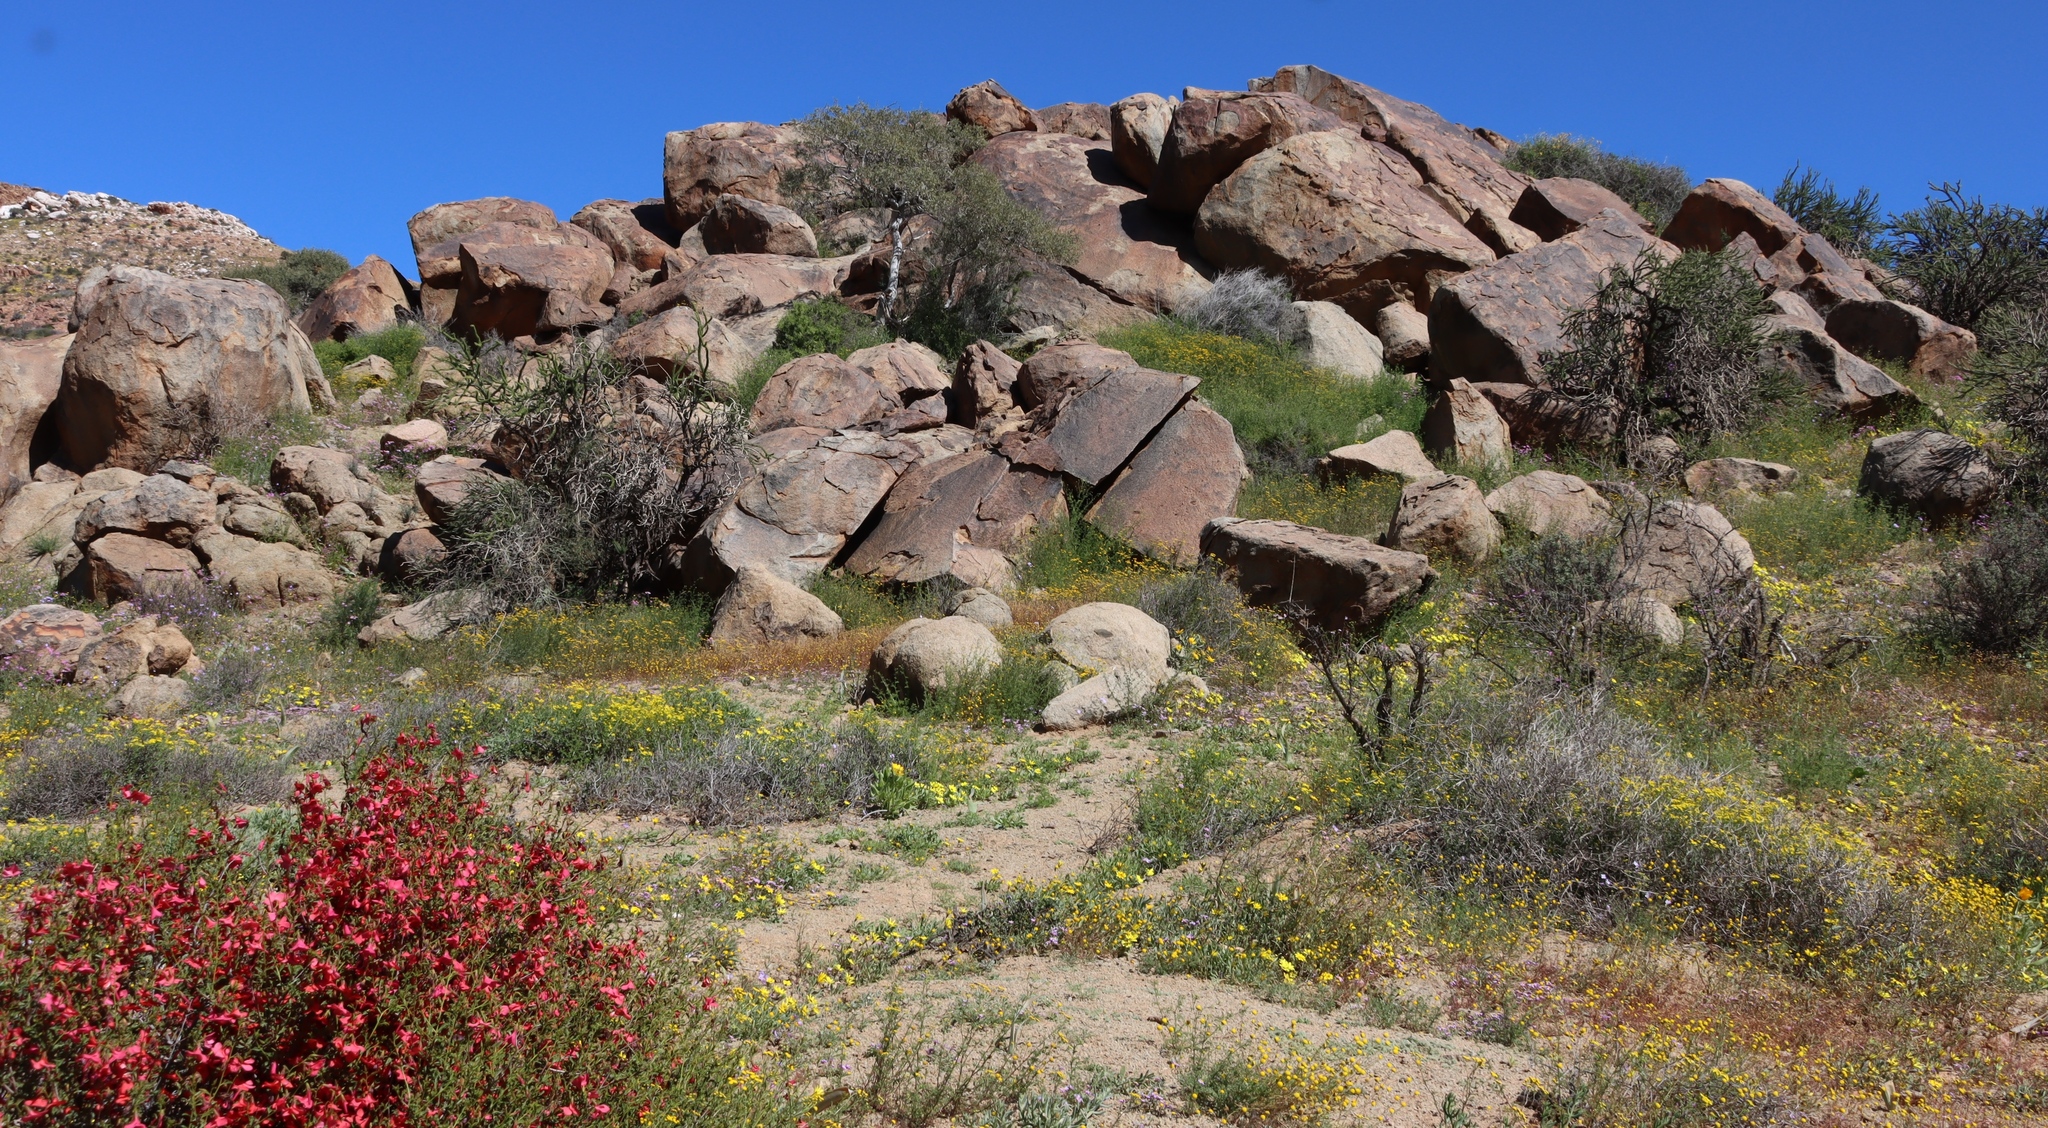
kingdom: Plantae
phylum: Tracheophyta
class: Magnoliopsida
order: Caryophyllales
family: Didiereaceae
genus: Portulacaria
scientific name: Portulacaria namaquensis
